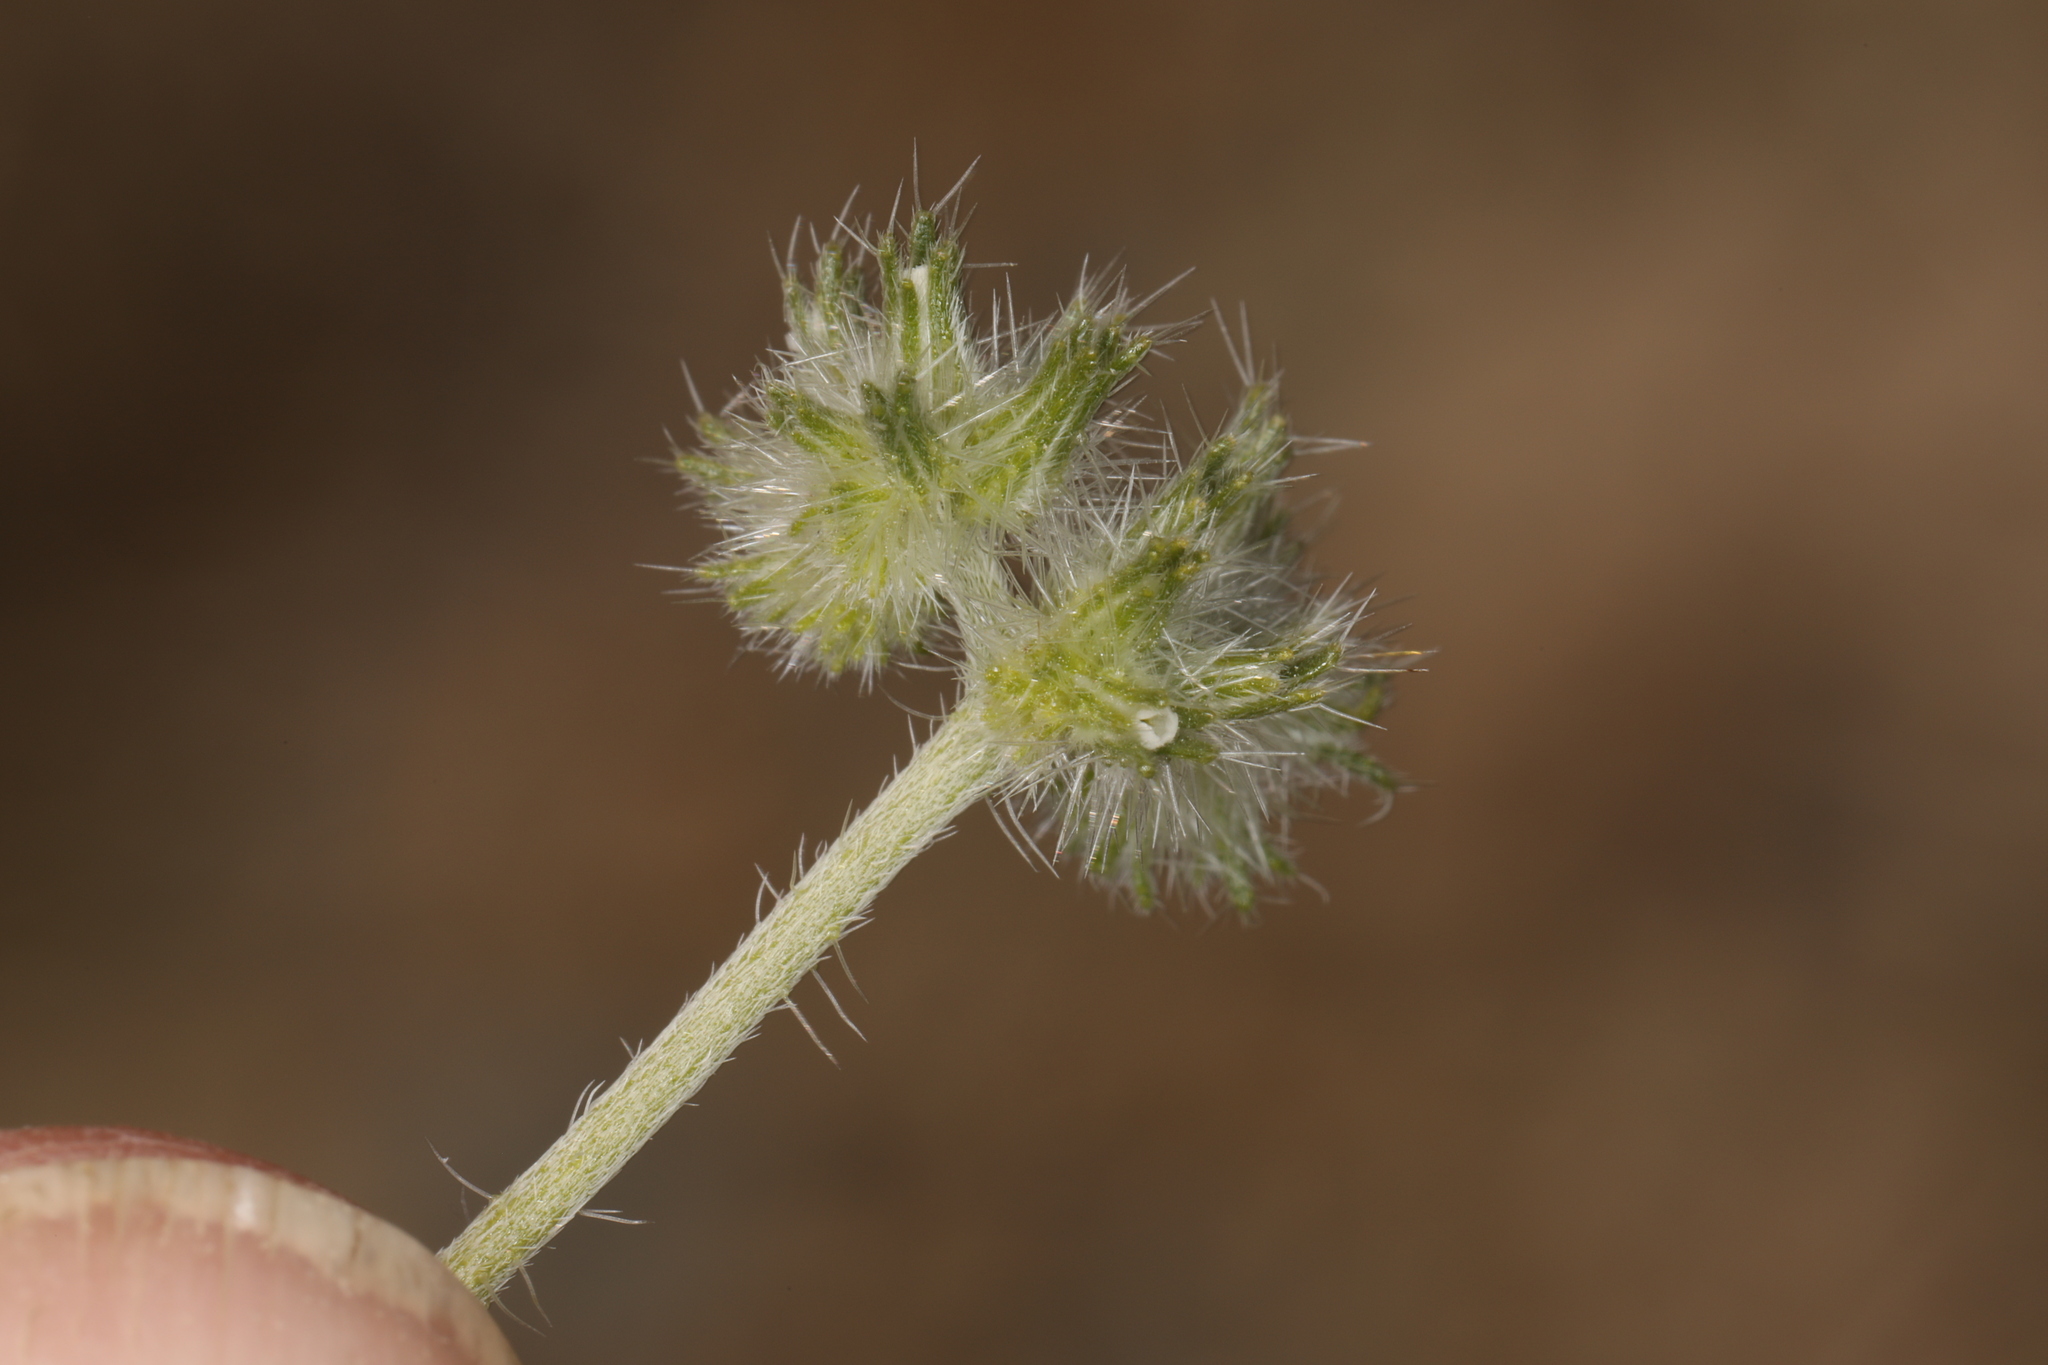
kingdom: Plantae
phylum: Tracheophyta
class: Magnoliopsida
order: Boraginales
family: Boraginaceae
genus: Cryptantha
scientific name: Cryptantha nevadensis
